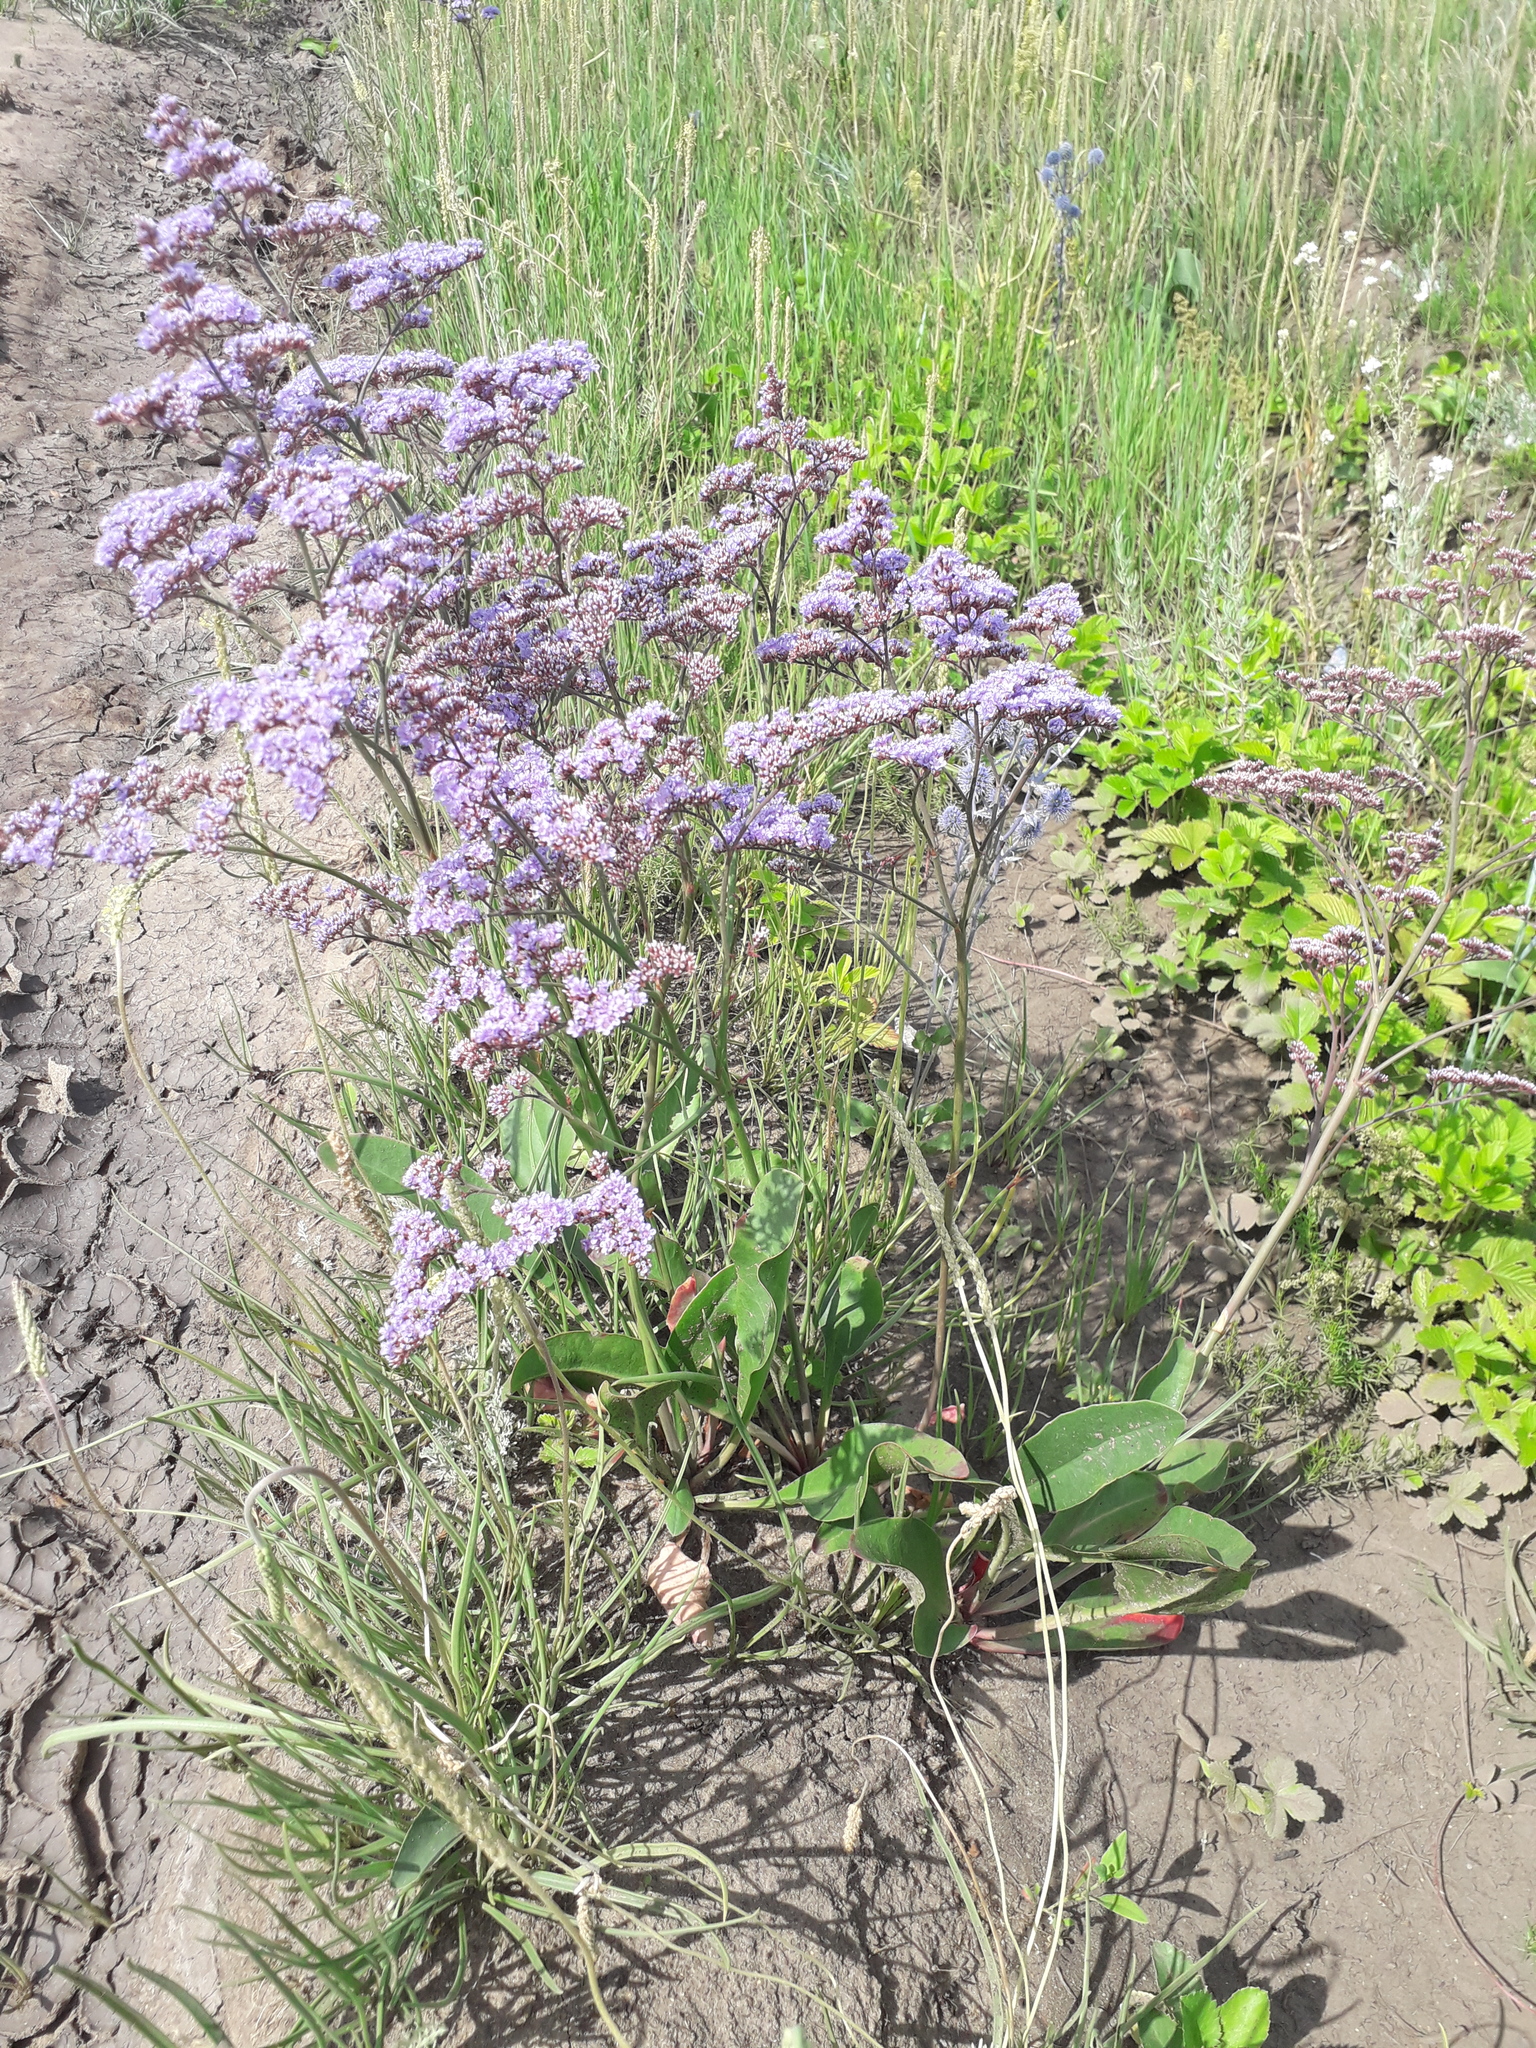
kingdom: Plantae
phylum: Tracheophyta
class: Magnoliopsida
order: Caryophyllales
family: Plumbaginaceae
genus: Limonium
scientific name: Limonium gmelini
